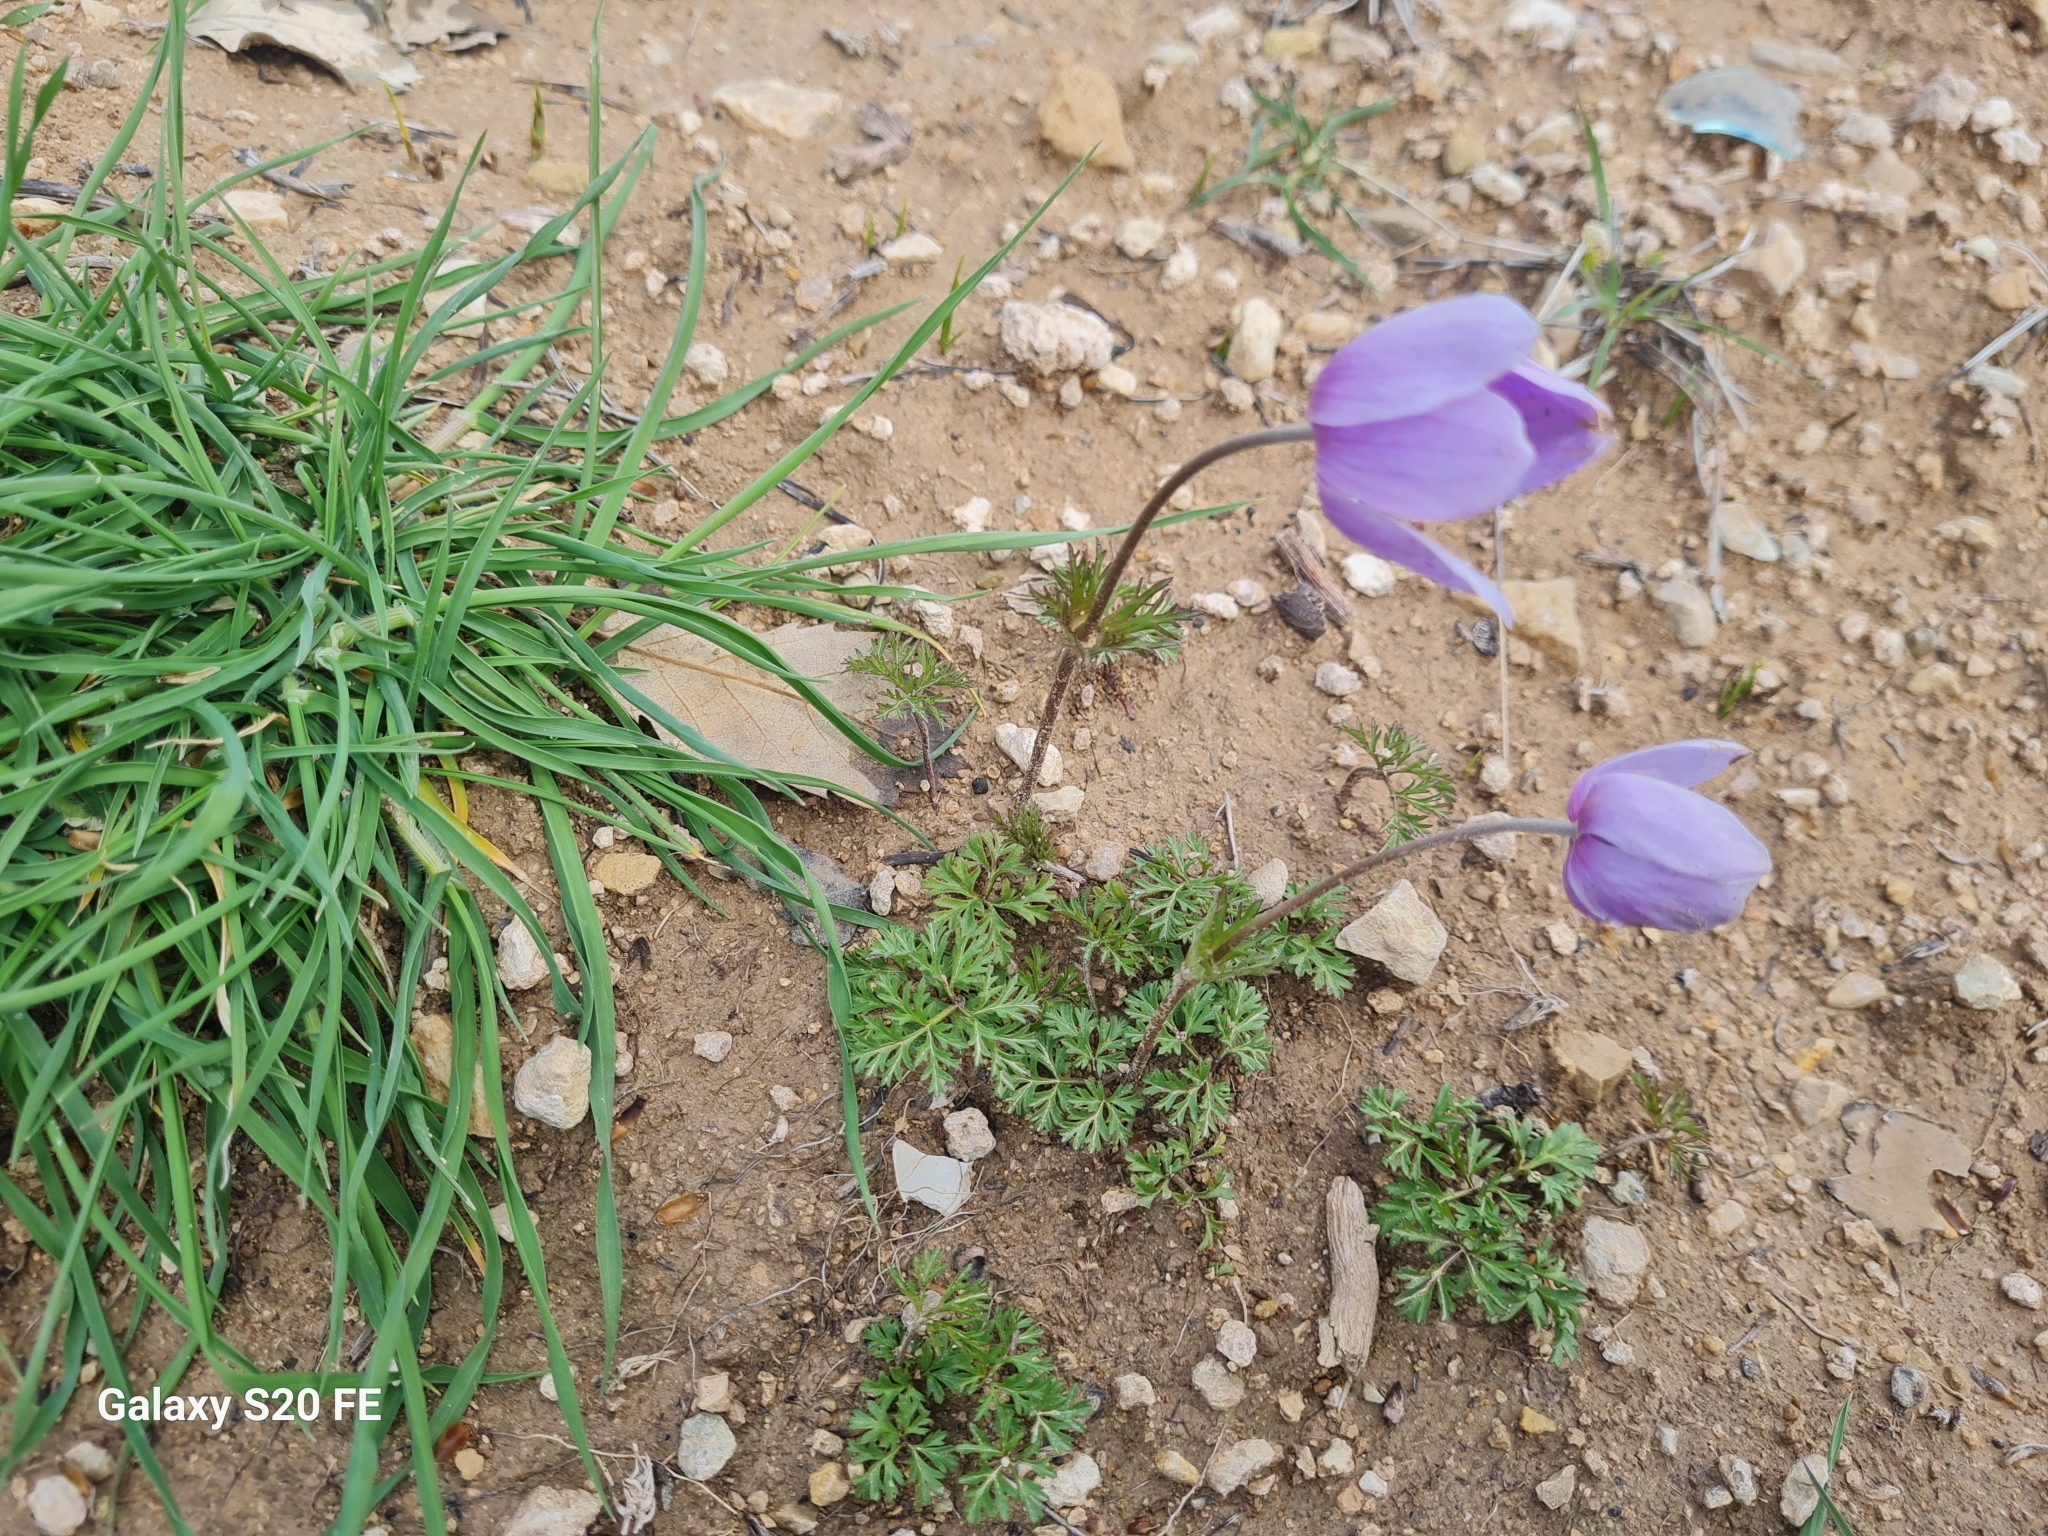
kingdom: Plantae
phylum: Tracheophyta
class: Magnoliopsida
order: Ranunculales
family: Ranunculaceae
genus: Anemone
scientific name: Anemone coronaria
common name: Poppy anemone
